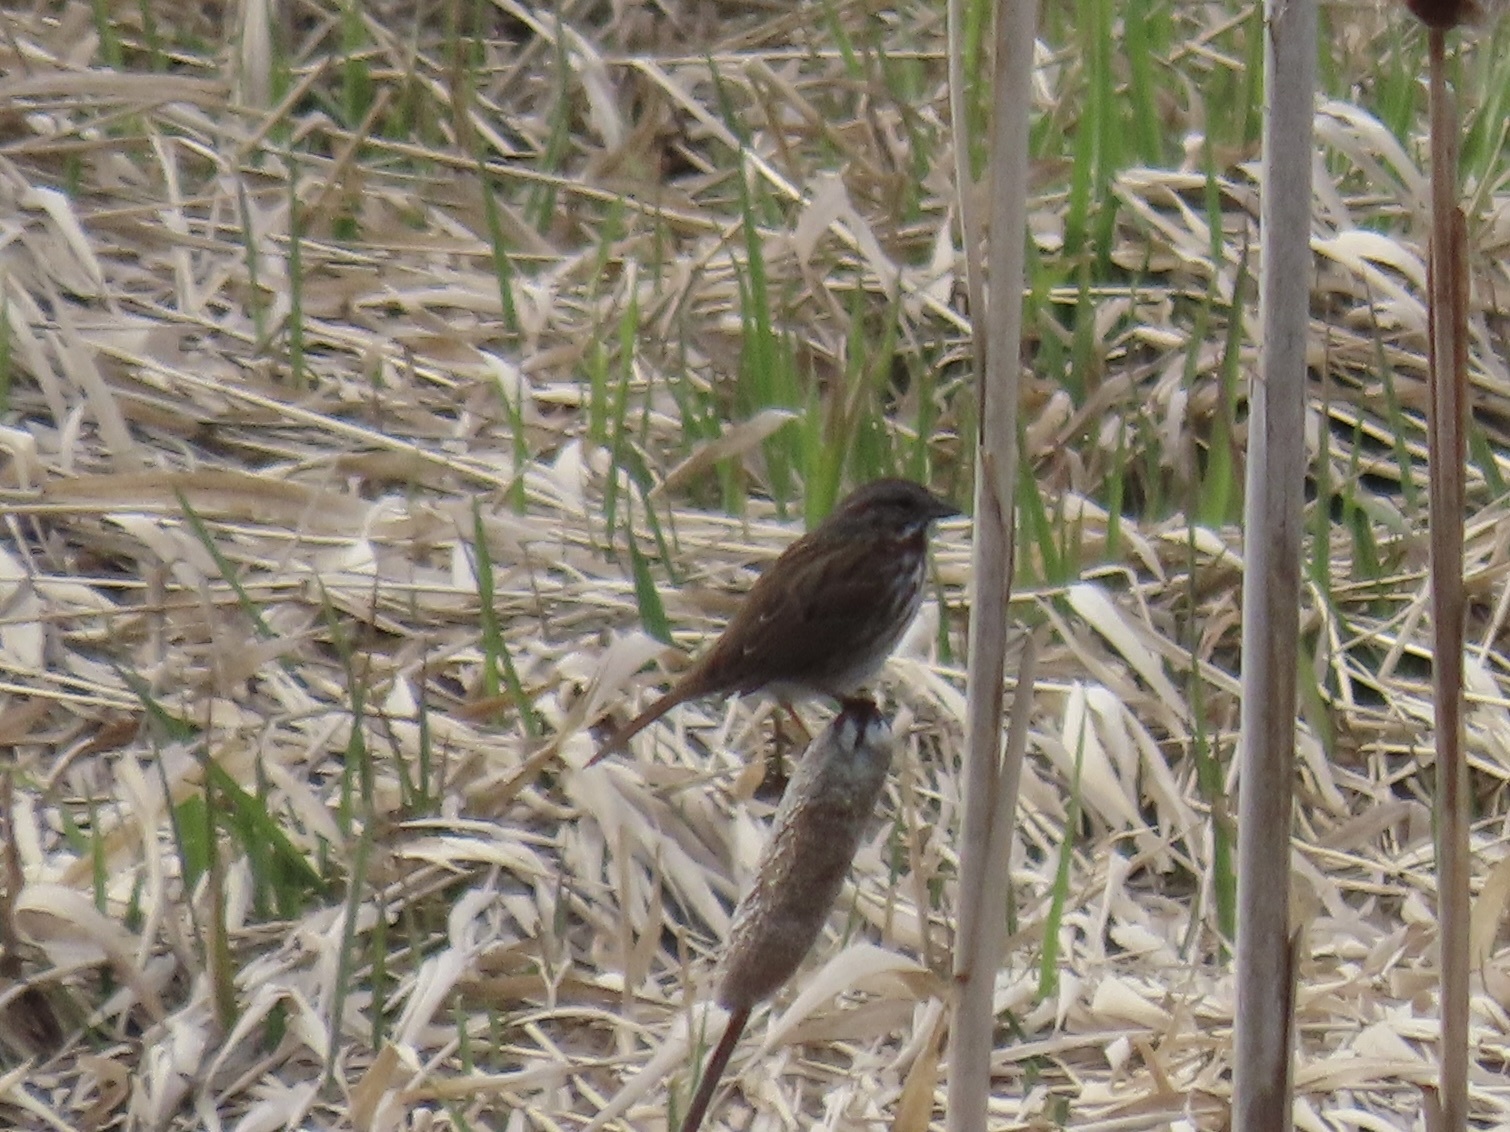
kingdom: Animalia
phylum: Chordata
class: Aves
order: Passeriformes
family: Passerellidae
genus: Melospiza
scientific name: Melospiza melodia
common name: Song sparrow
